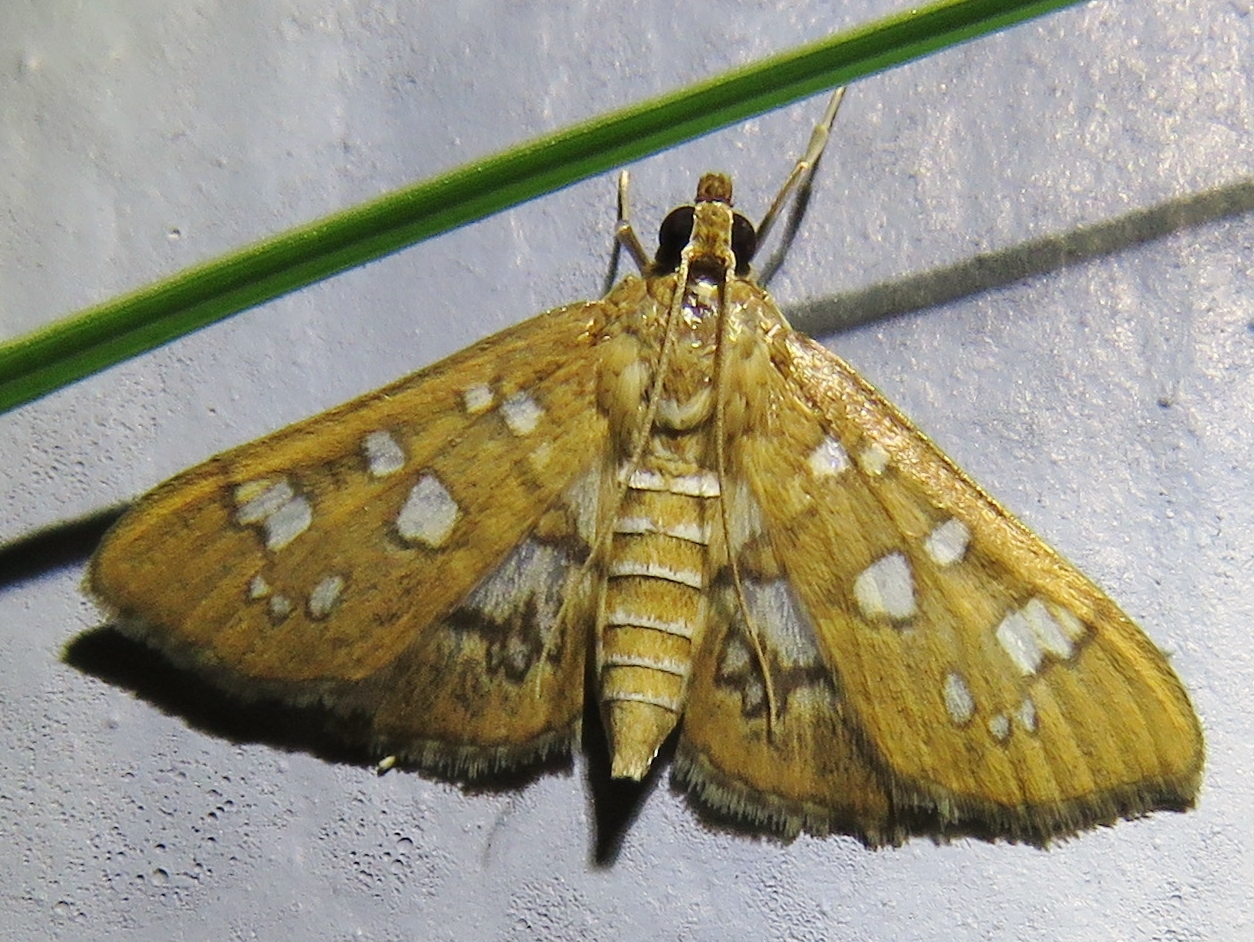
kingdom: Animalia
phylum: Arthropoda
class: Insecta
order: Lepidoptera
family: Crambidae
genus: Samea
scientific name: Samea baccatalis
